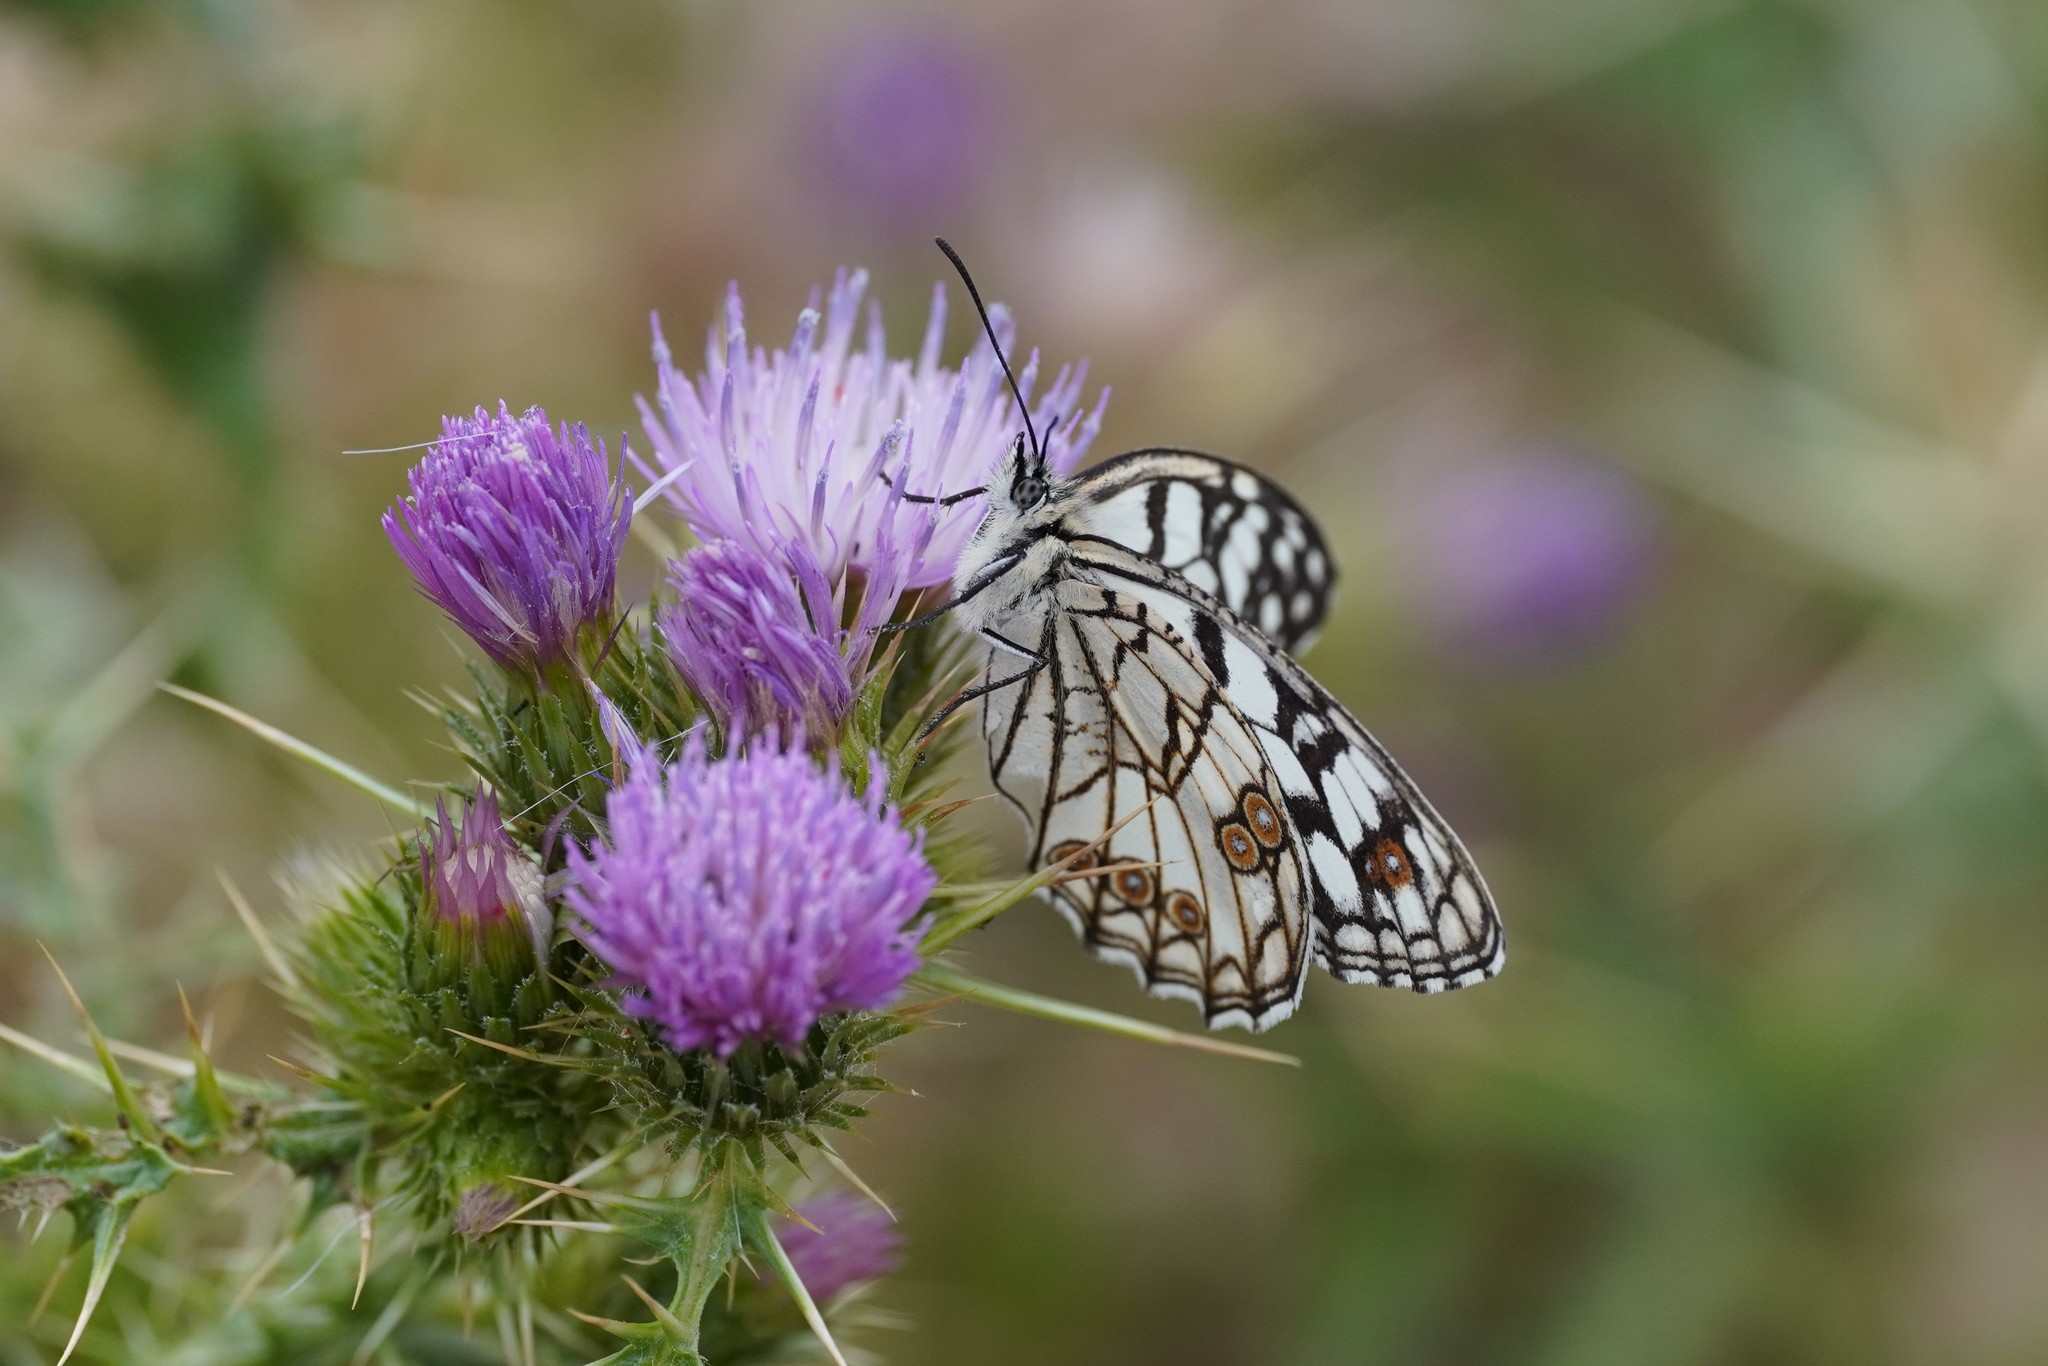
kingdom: Animalia
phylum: Arthropoda
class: Insecta
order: Lepidoptera
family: Nymphalidae
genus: Melanargia
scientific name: Melanargia ines
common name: Spanish marbled white
